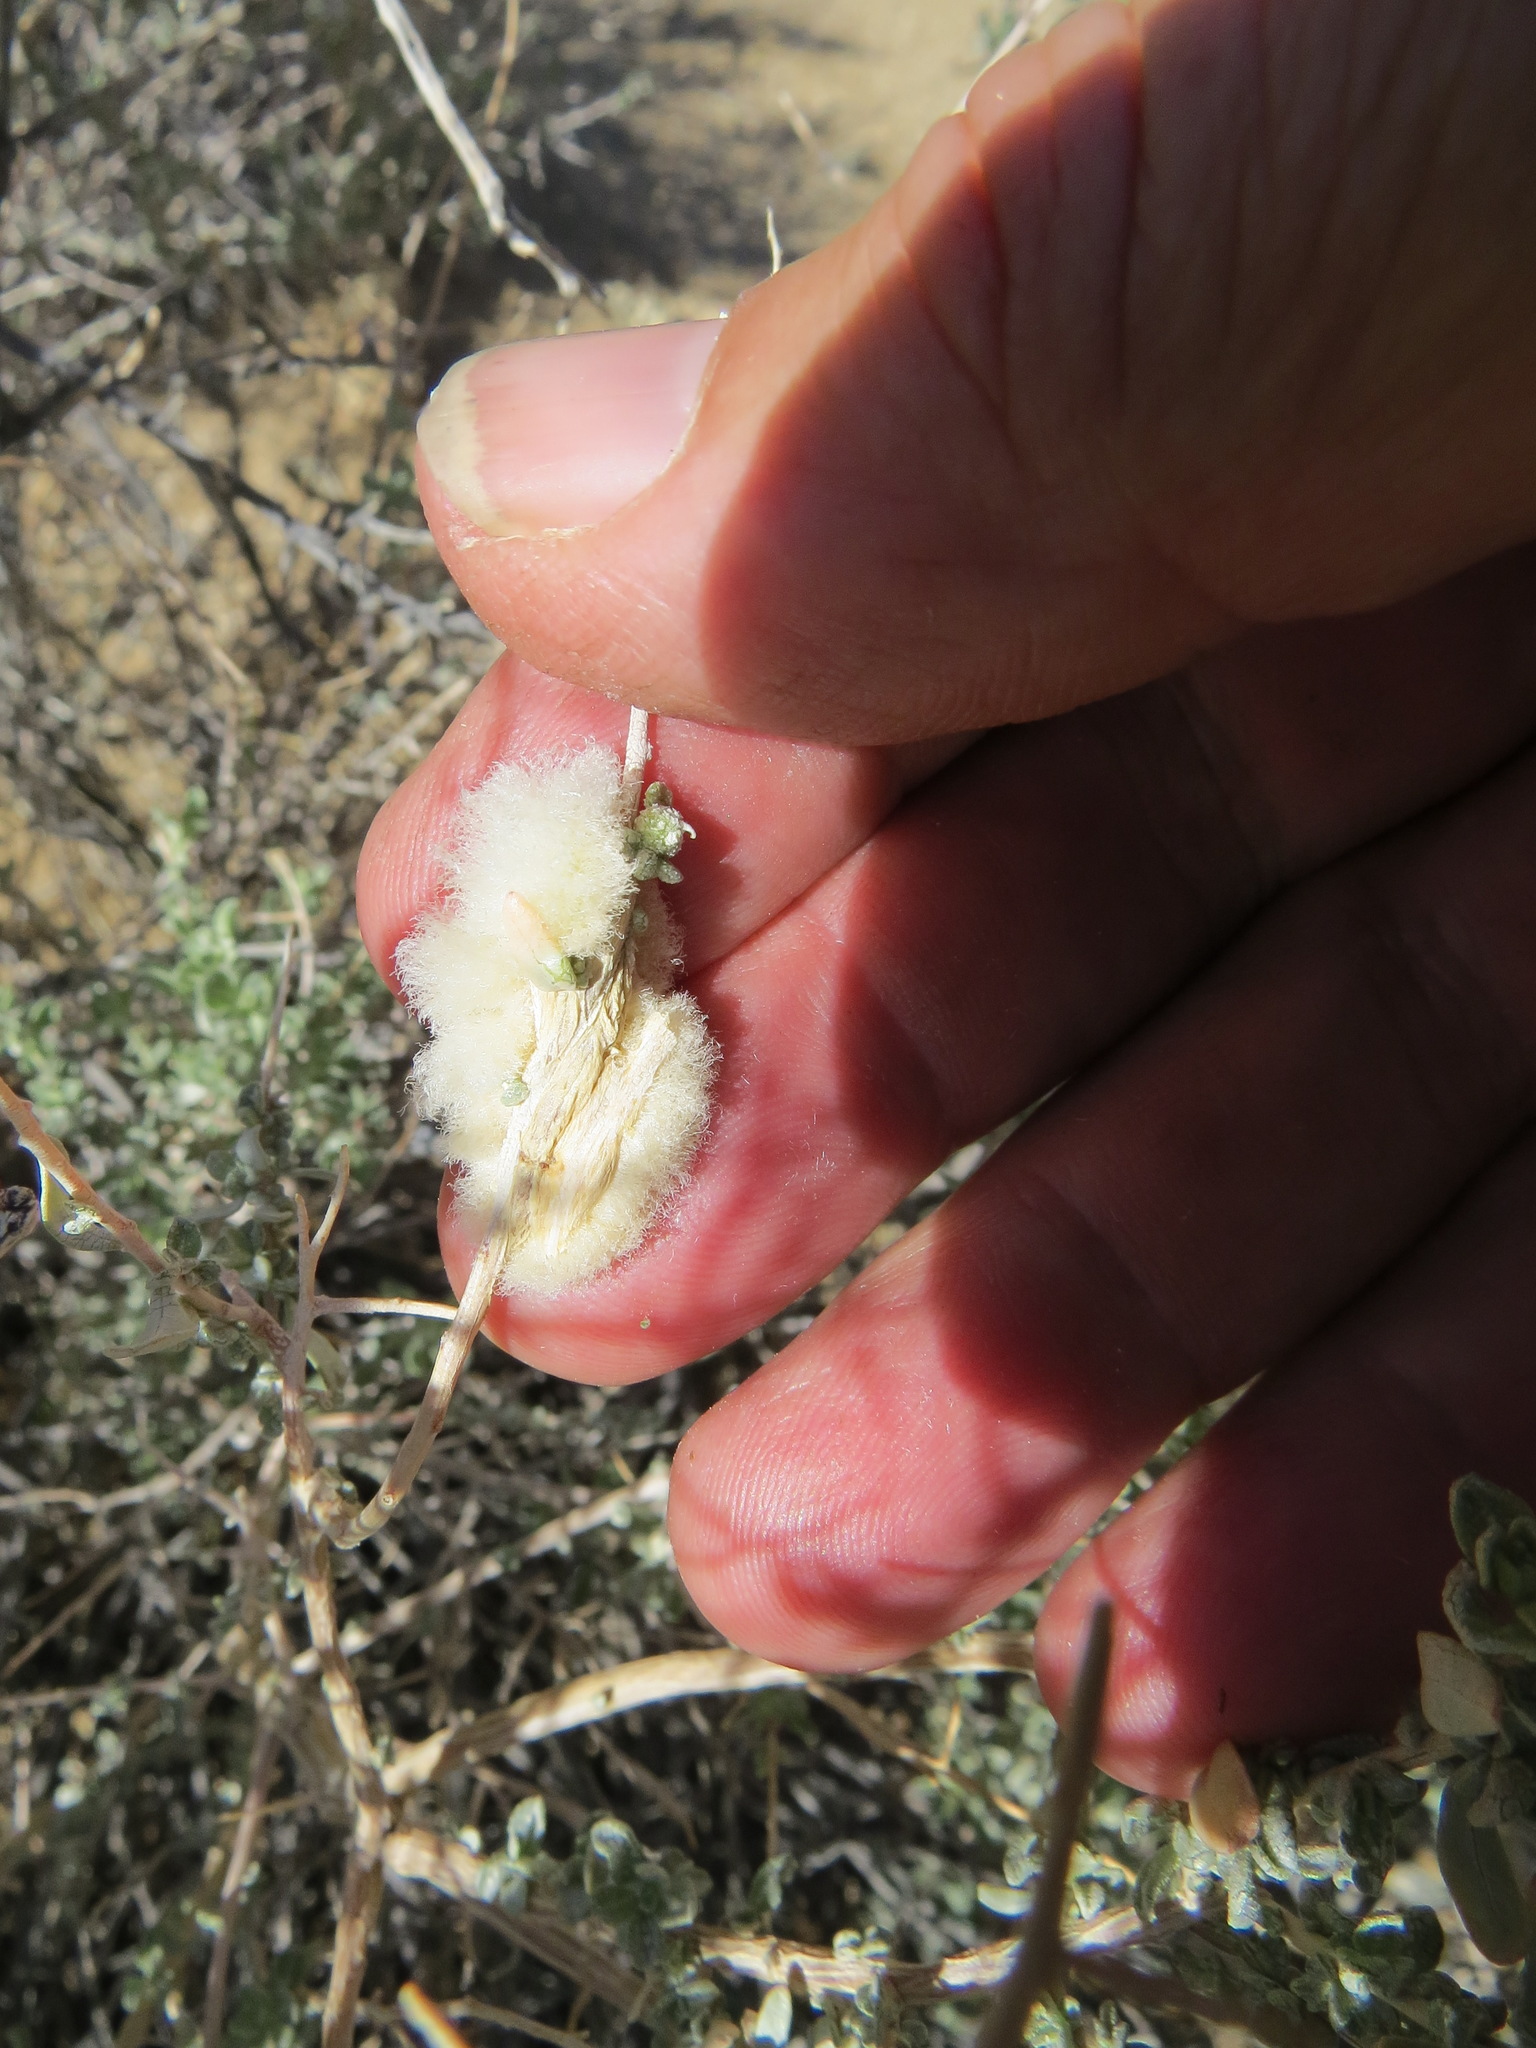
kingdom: Animalia
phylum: Arthropoda
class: Insecta
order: Diptera
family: Cecidomyiidae
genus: Asphondylia
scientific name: Asphondylia floccosa
